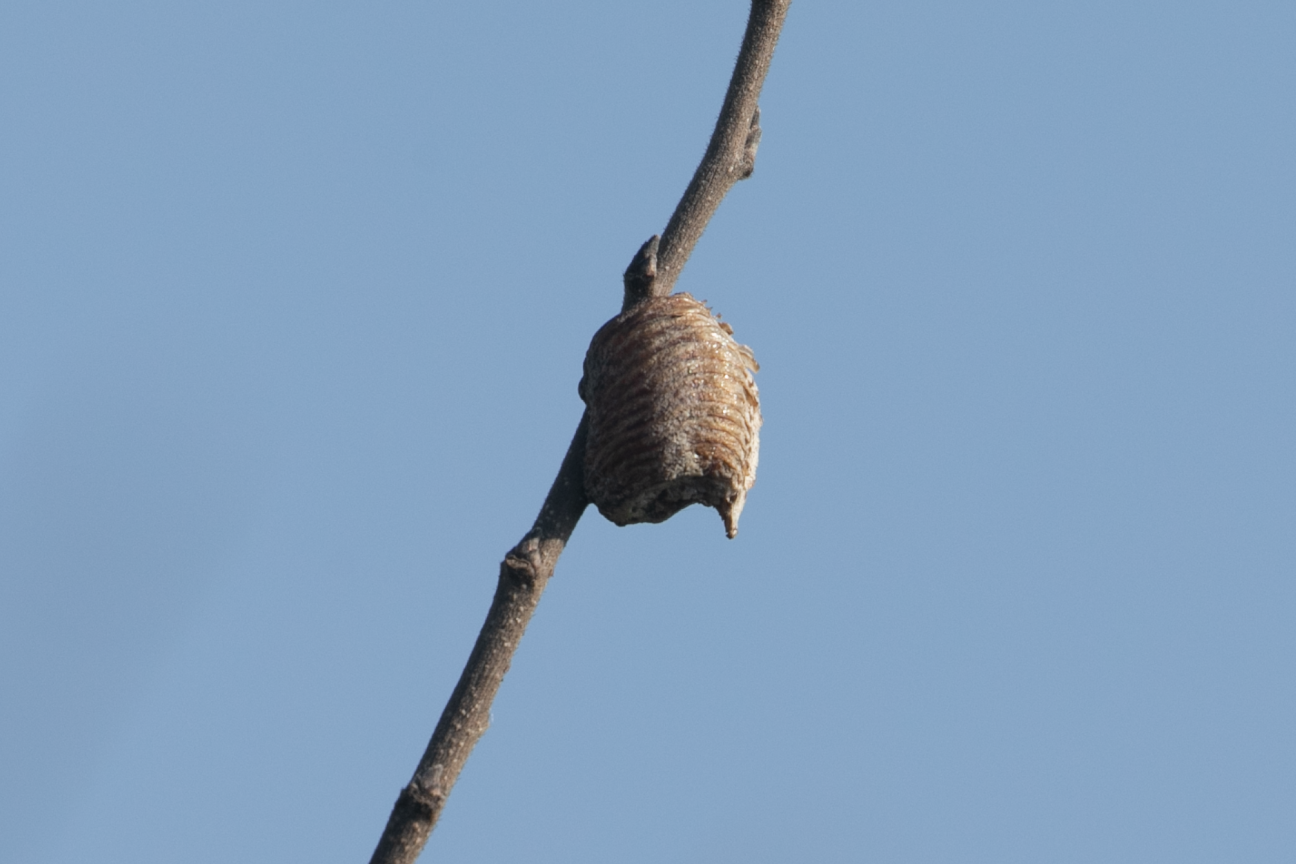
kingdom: Animalia
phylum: Arthropoda
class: Insecta
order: Mantodea
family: Mantidae
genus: Hierodula
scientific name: Hierodula transcaucasica
